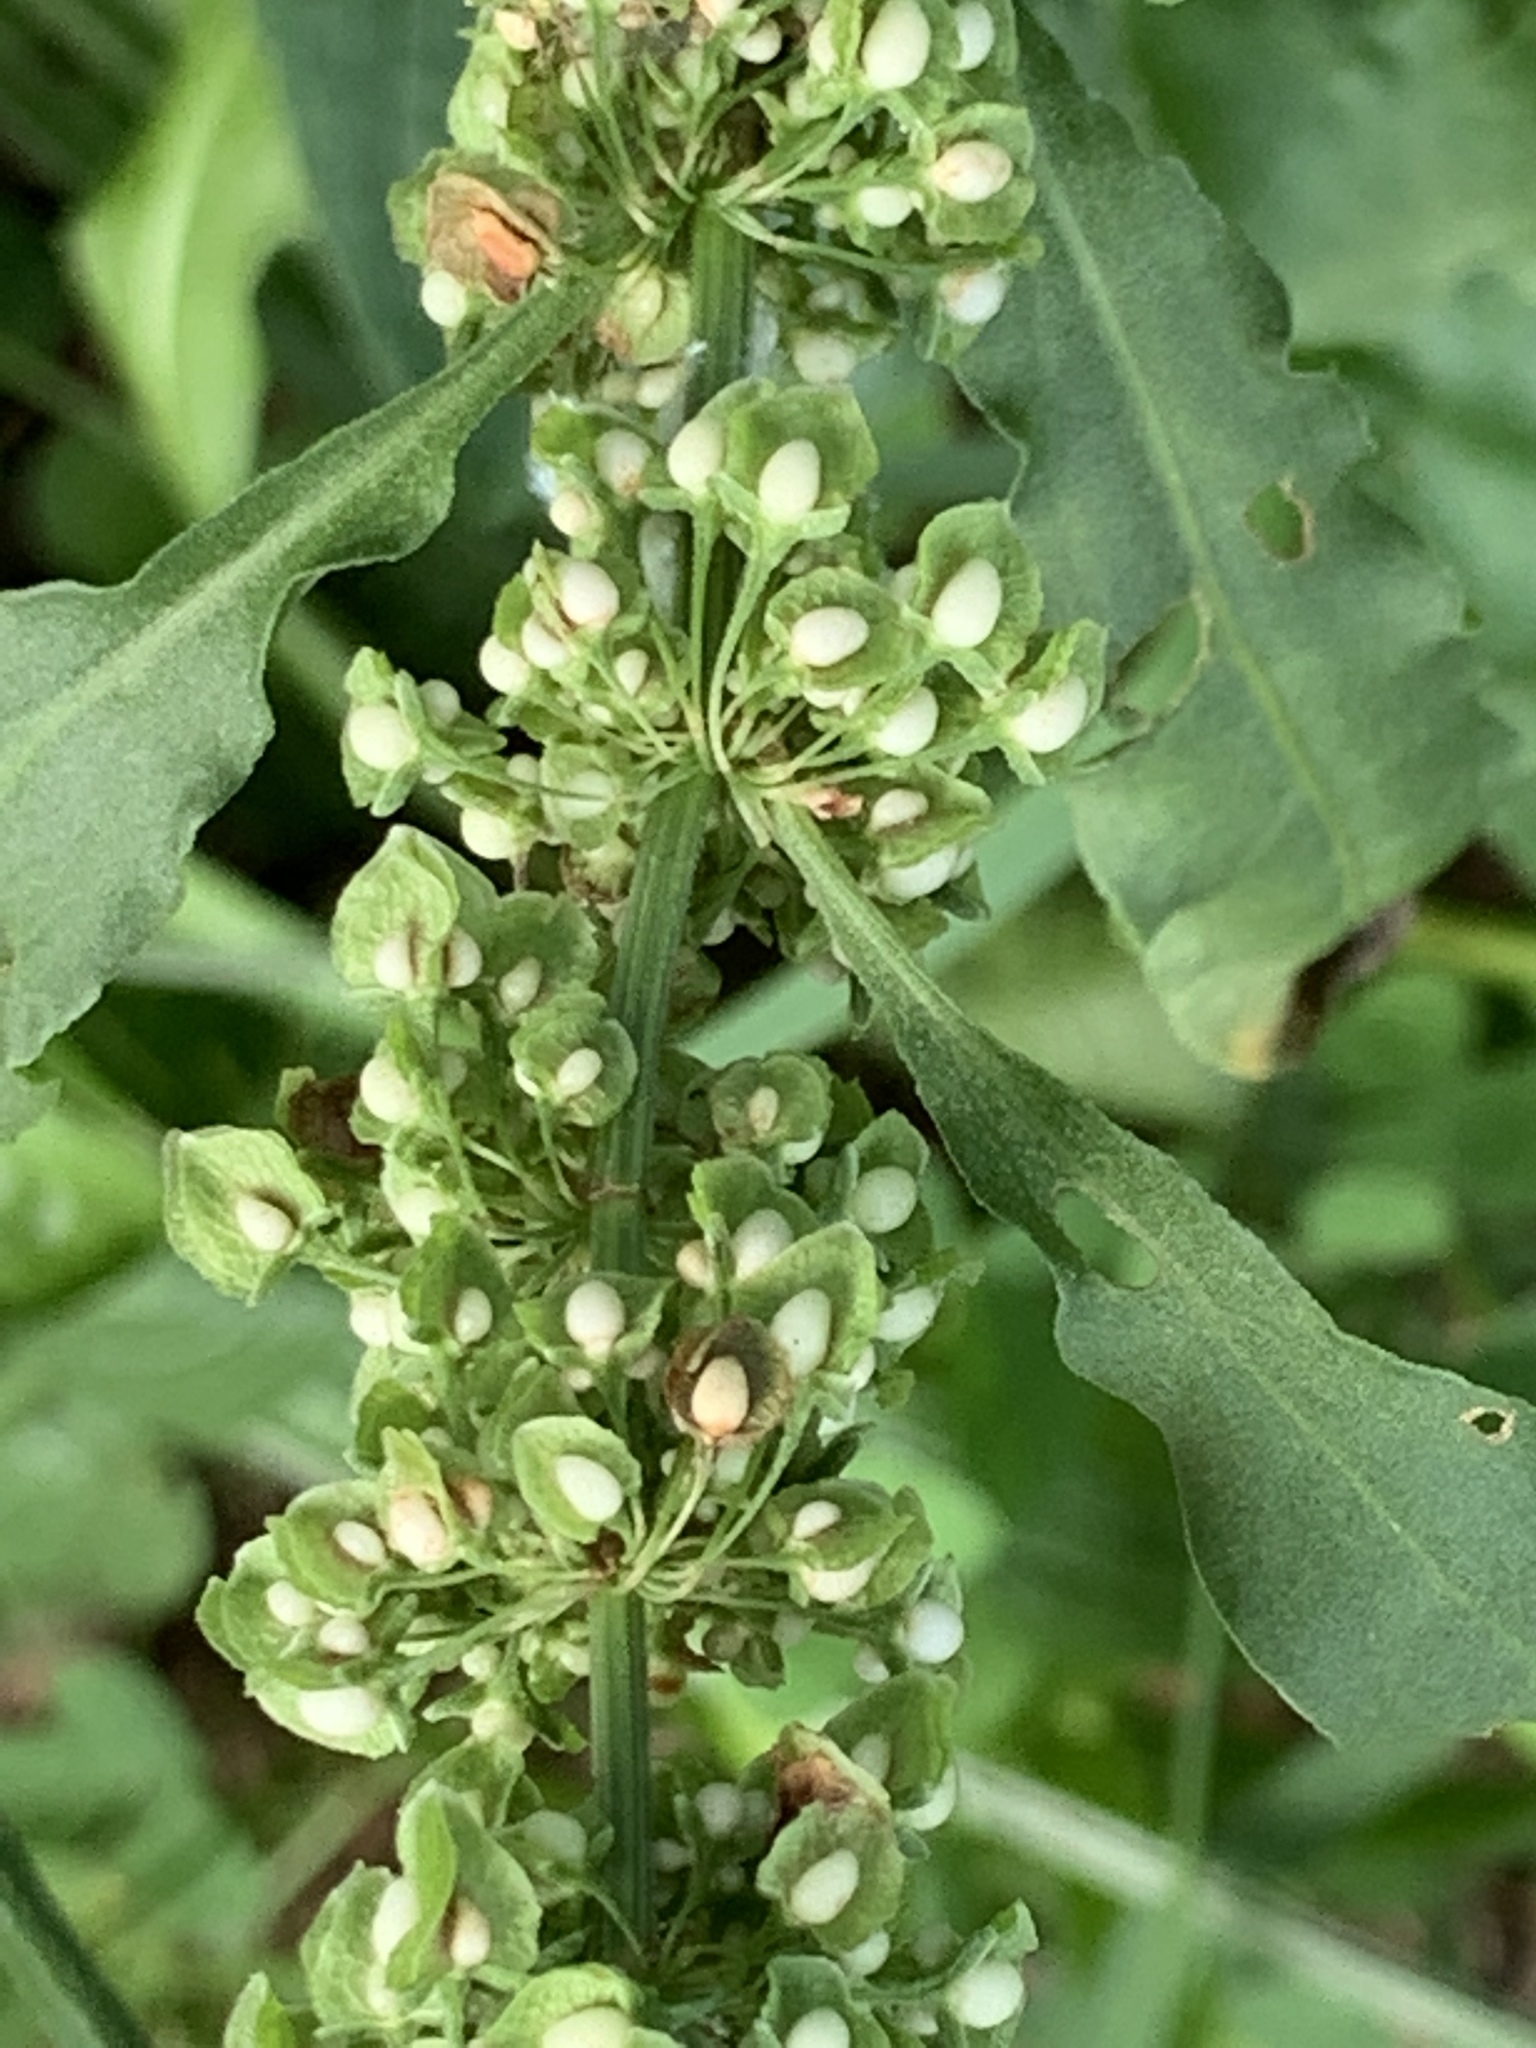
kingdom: Plantae
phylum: Tracheophyta
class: Magnoliopsida
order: Caryophyllales
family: Polygonaceae
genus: Rumex
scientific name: Rumex crispus
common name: Curled dock
